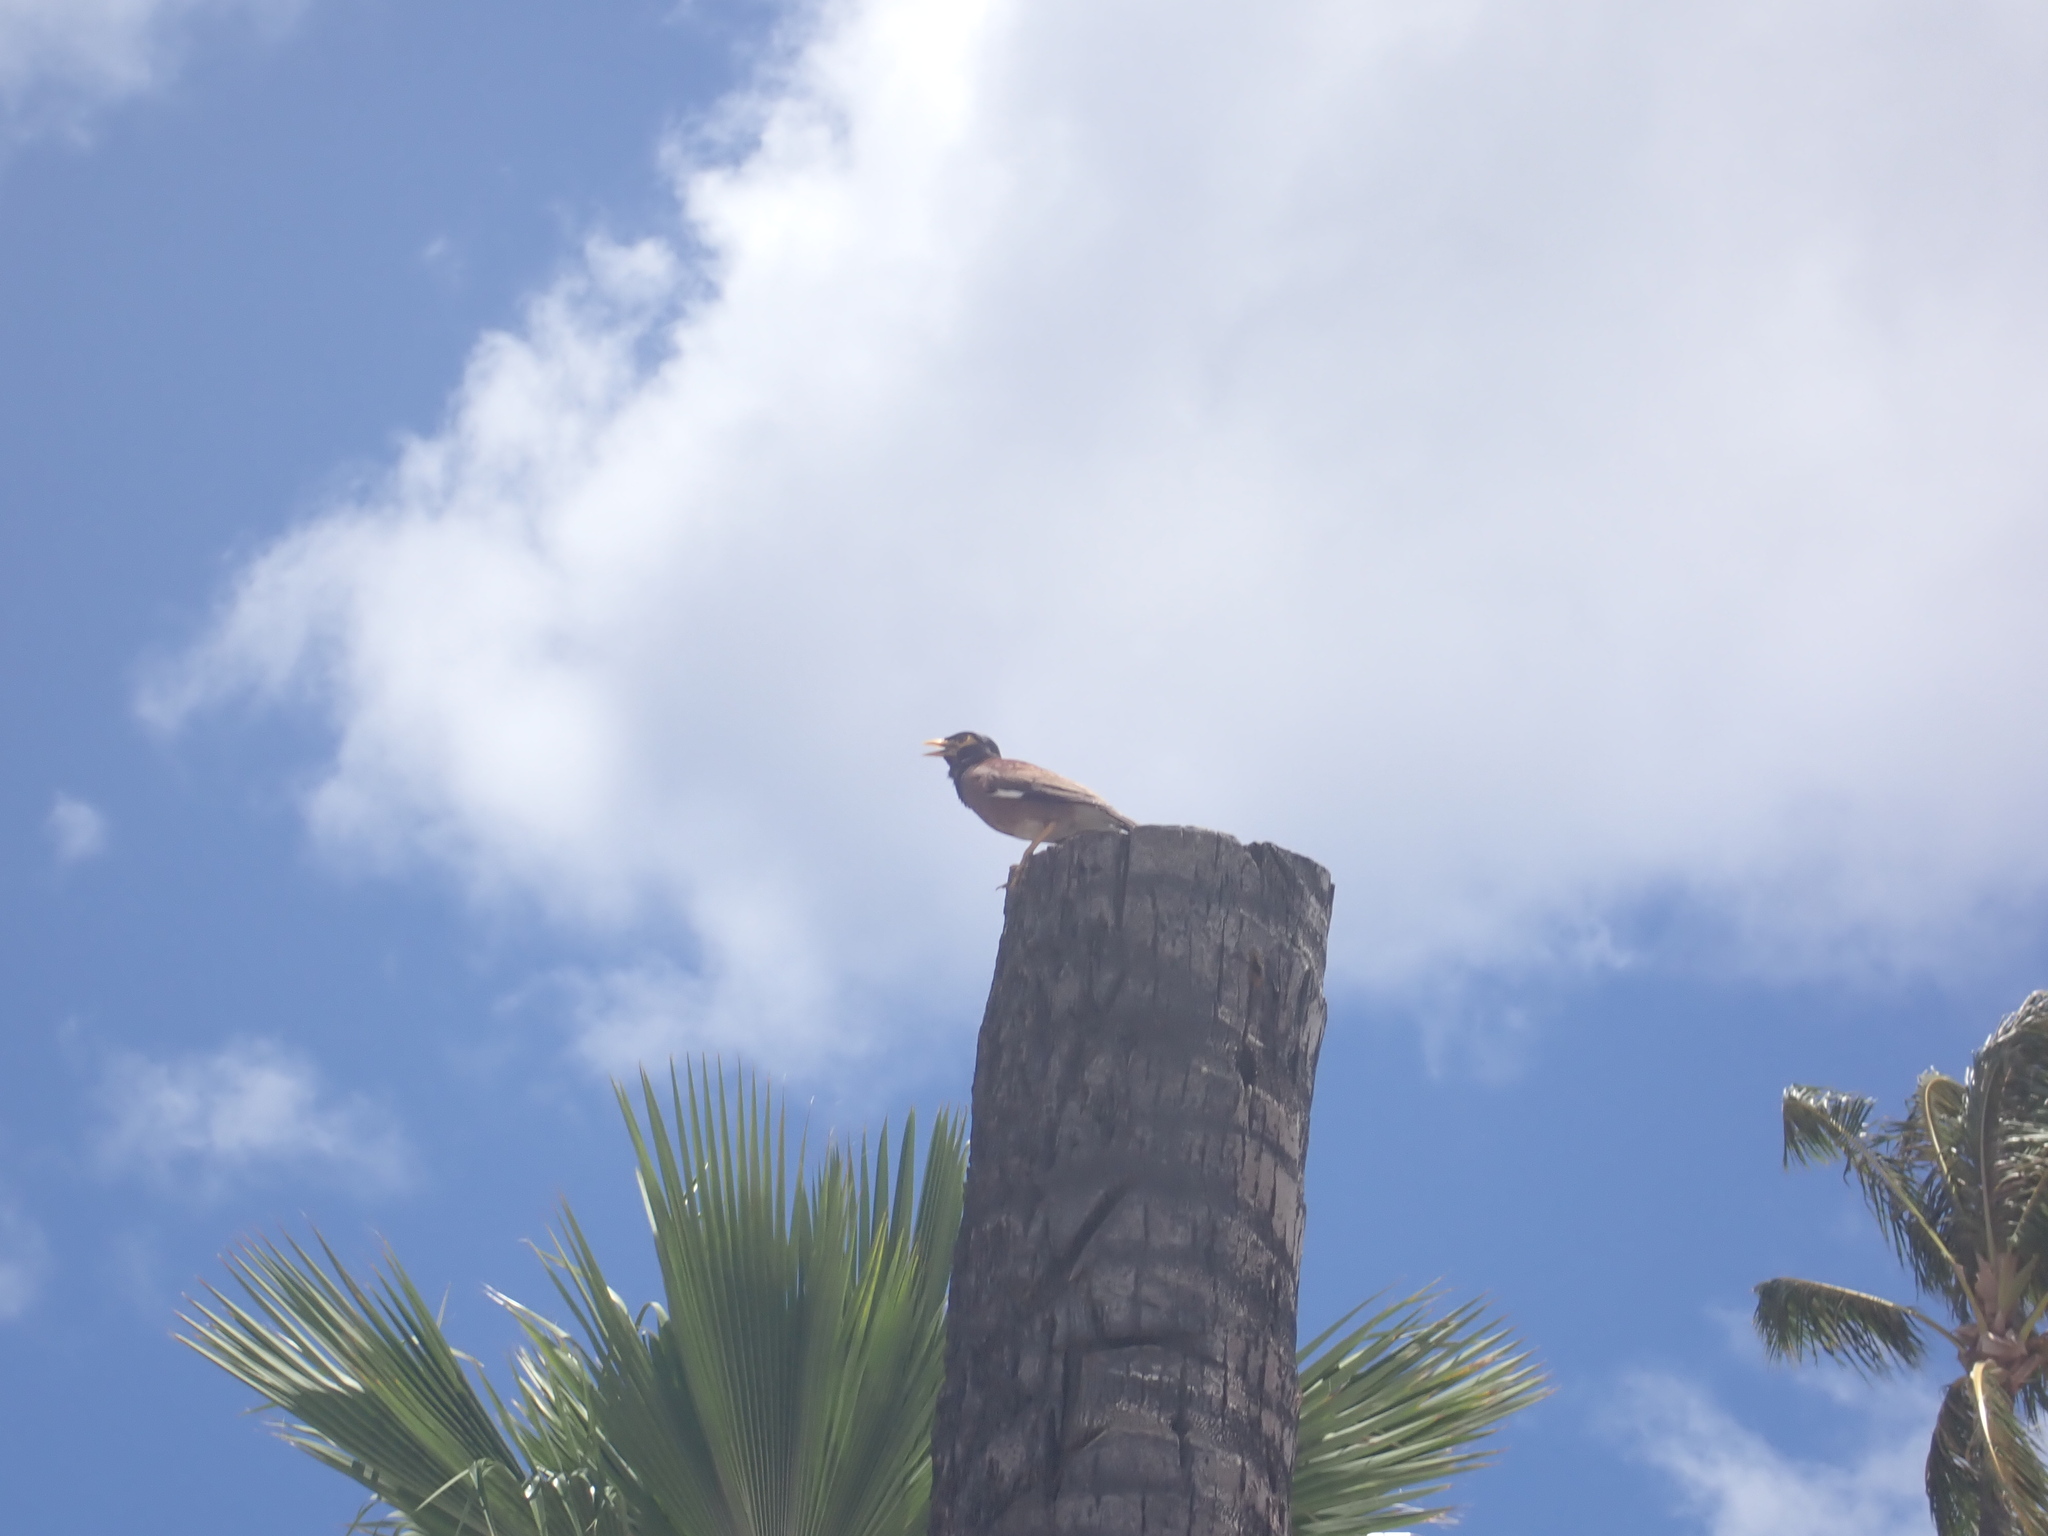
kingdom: Animalia
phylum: Chordata
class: Aves
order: Passeriformes
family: Sturnidae
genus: Acridotheres
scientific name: Acridotheres tristis
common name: Common myna
